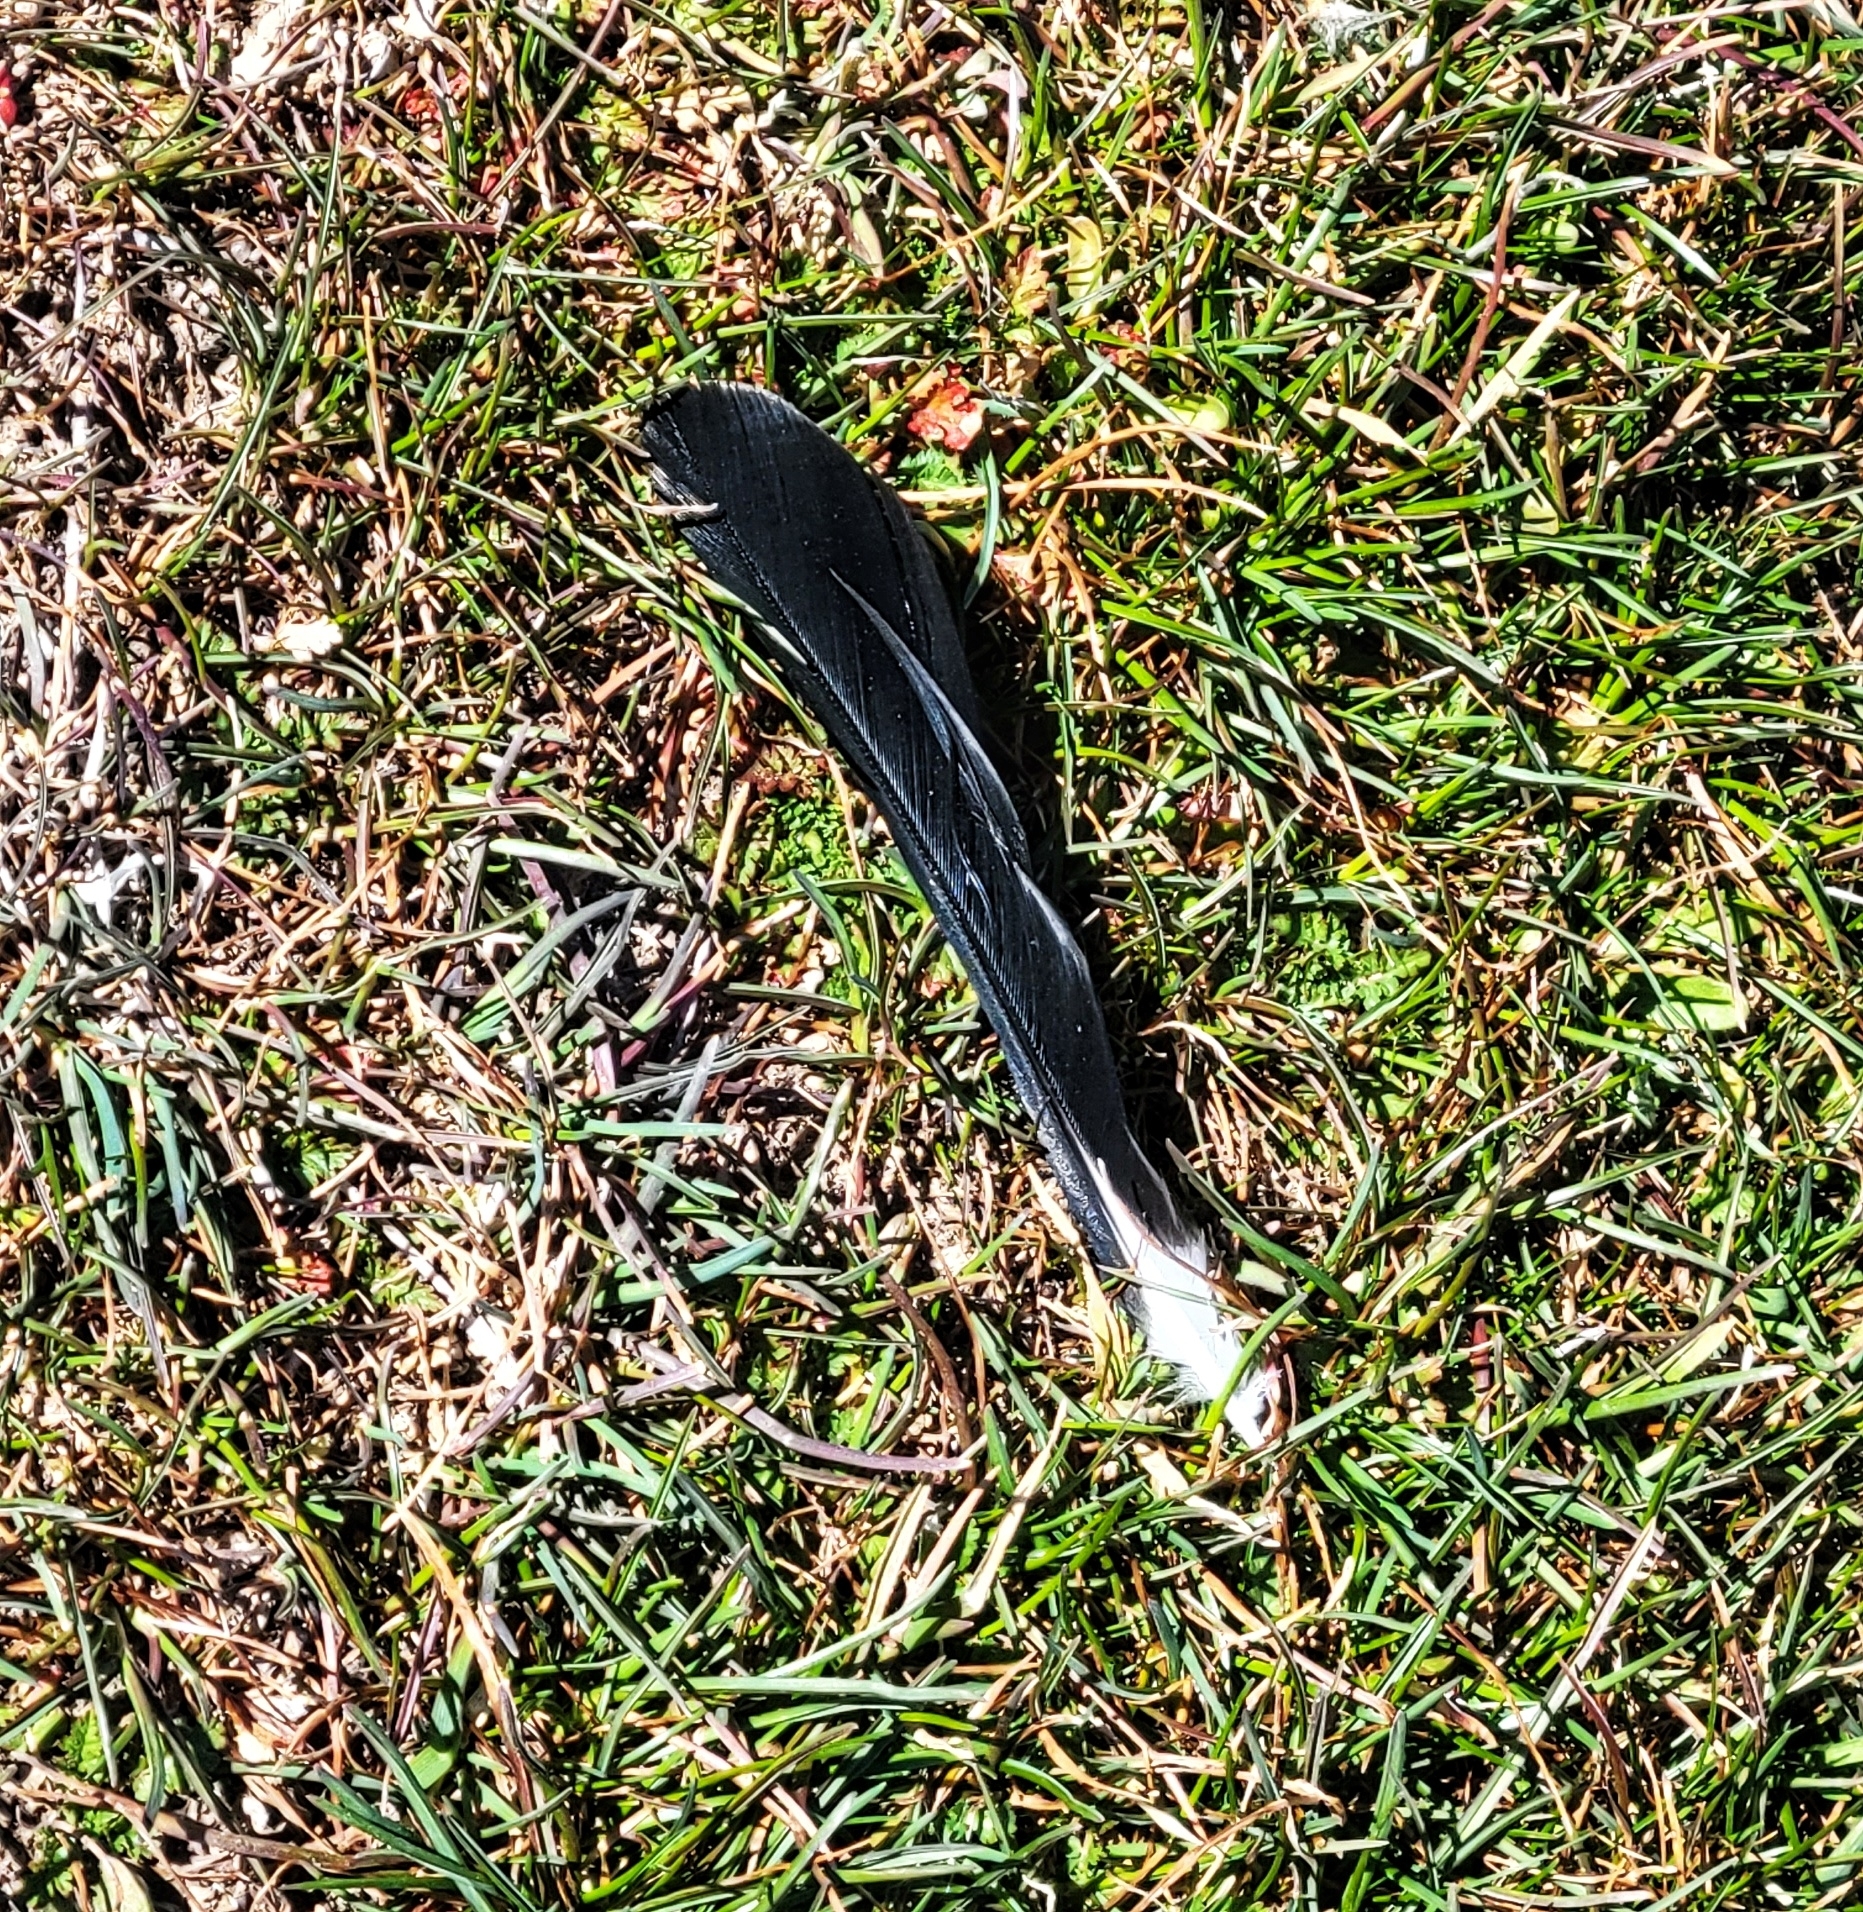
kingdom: Animalia
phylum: Chordata
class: Aves
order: Passeriformes
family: Icteridae
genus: Agelaius
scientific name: Agelaius phoeniceus
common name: Red-winged blackbird
